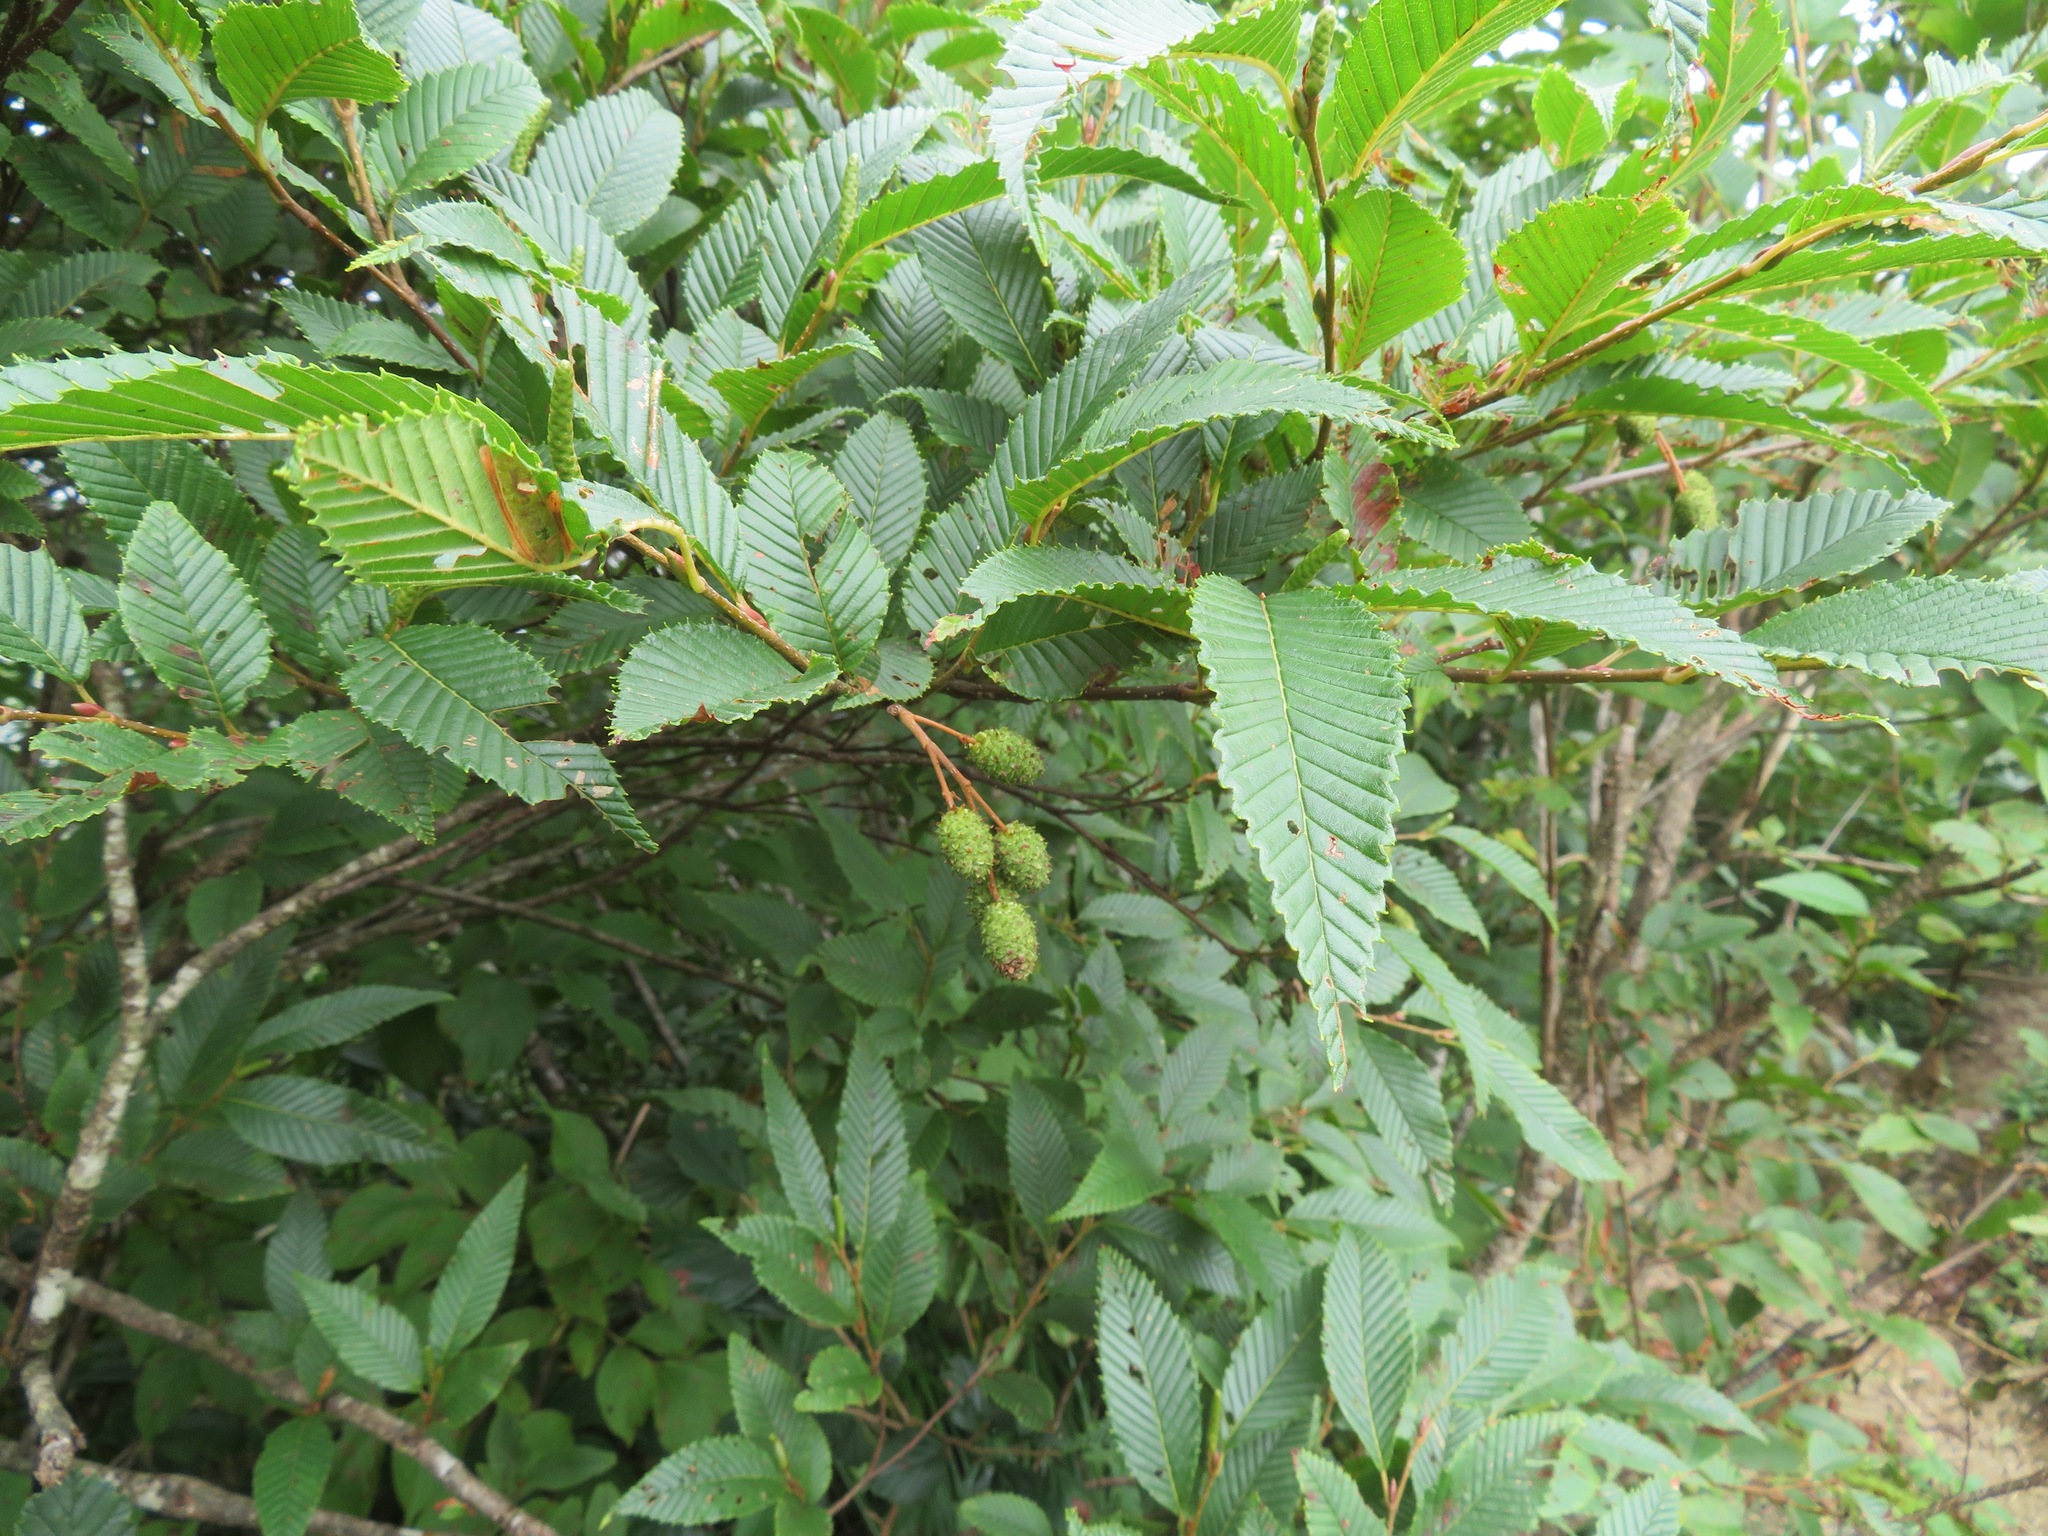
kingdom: Plantae
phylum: Tracheophyta
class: Magnoliopsida
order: Fagales
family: Betulaceae
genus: Alnus
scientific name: Alnus pendula
